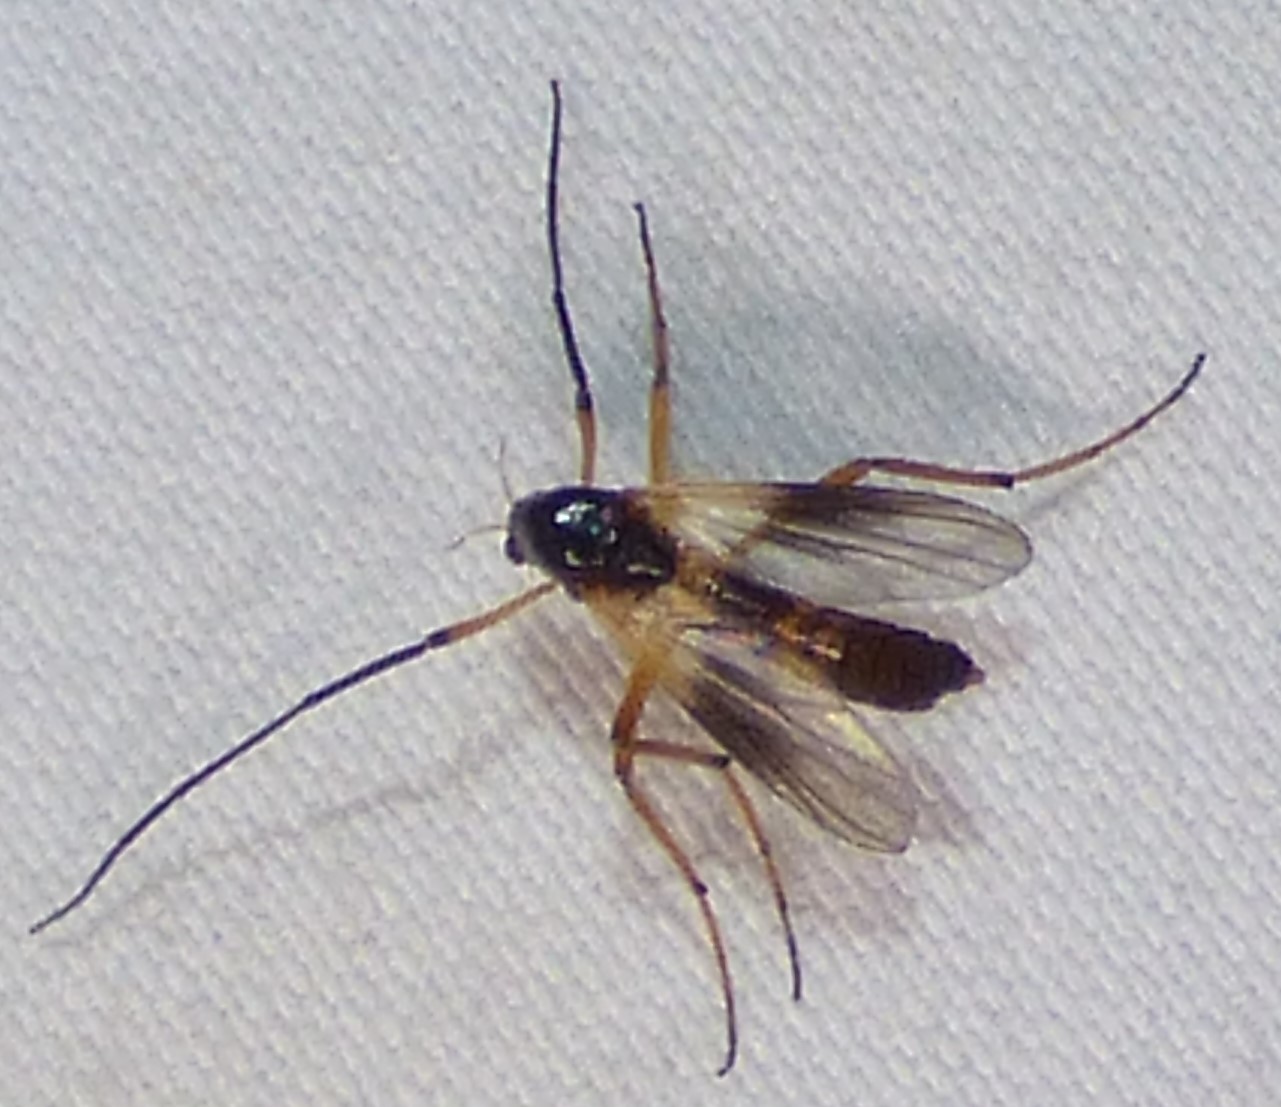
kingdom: Animalia
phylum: Arthropoda
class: Insecta
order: Diptera
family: Chironomidae
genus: Demeijerea
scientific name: Demeijerea atrimanus
